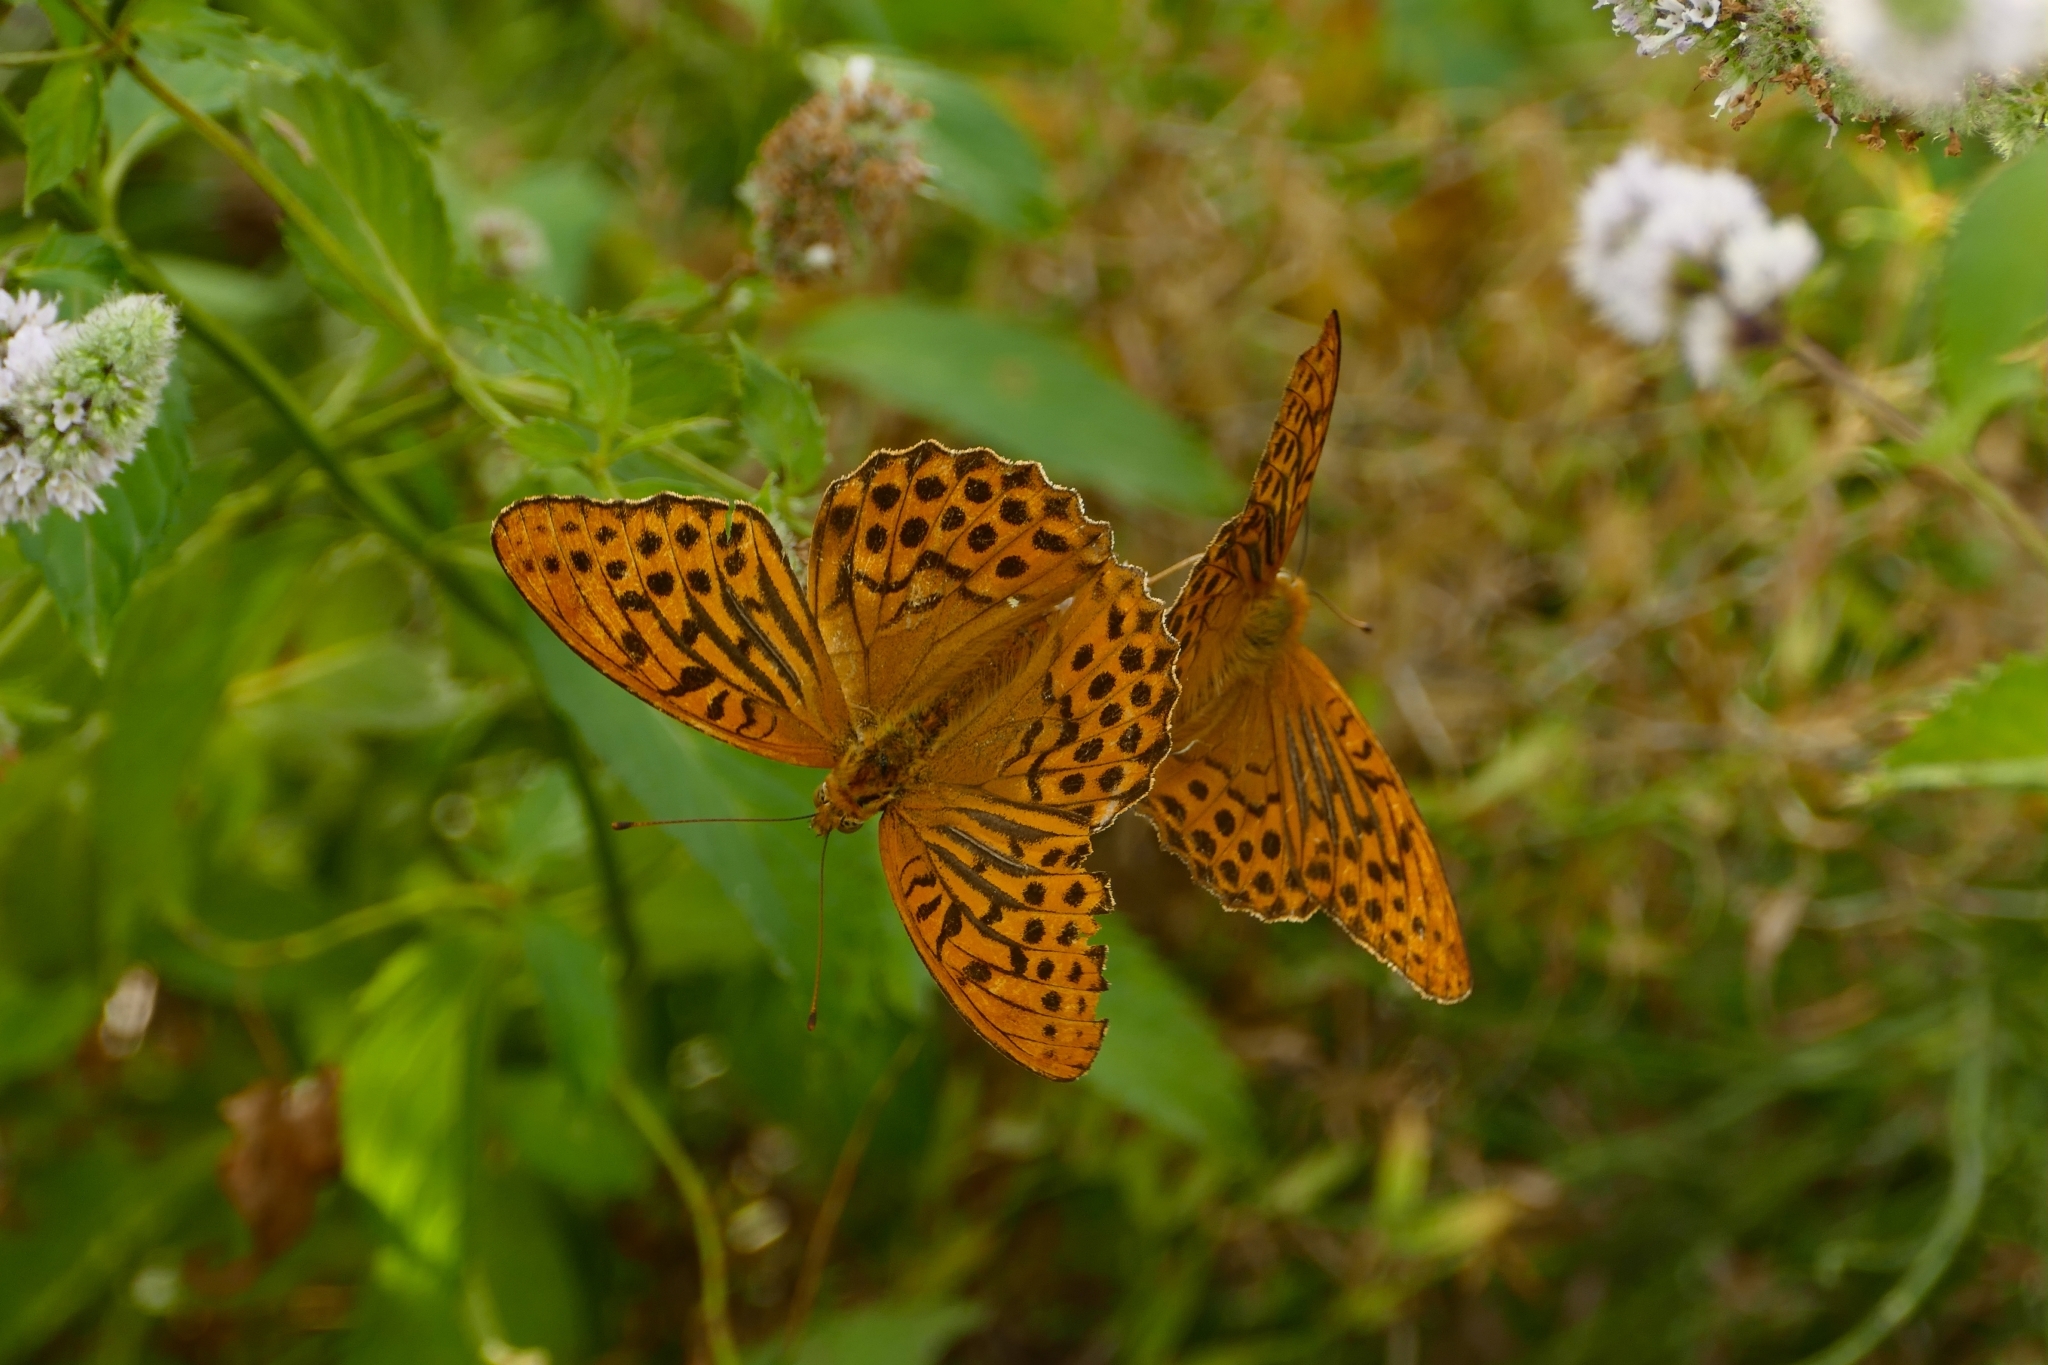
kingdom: Animalia
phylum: Arthropoda
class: Insecta
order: Lepidoptera
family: Nymphalidae
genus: Argynnis
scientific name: Argynnis paphia
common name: Silver-washed fritillary
